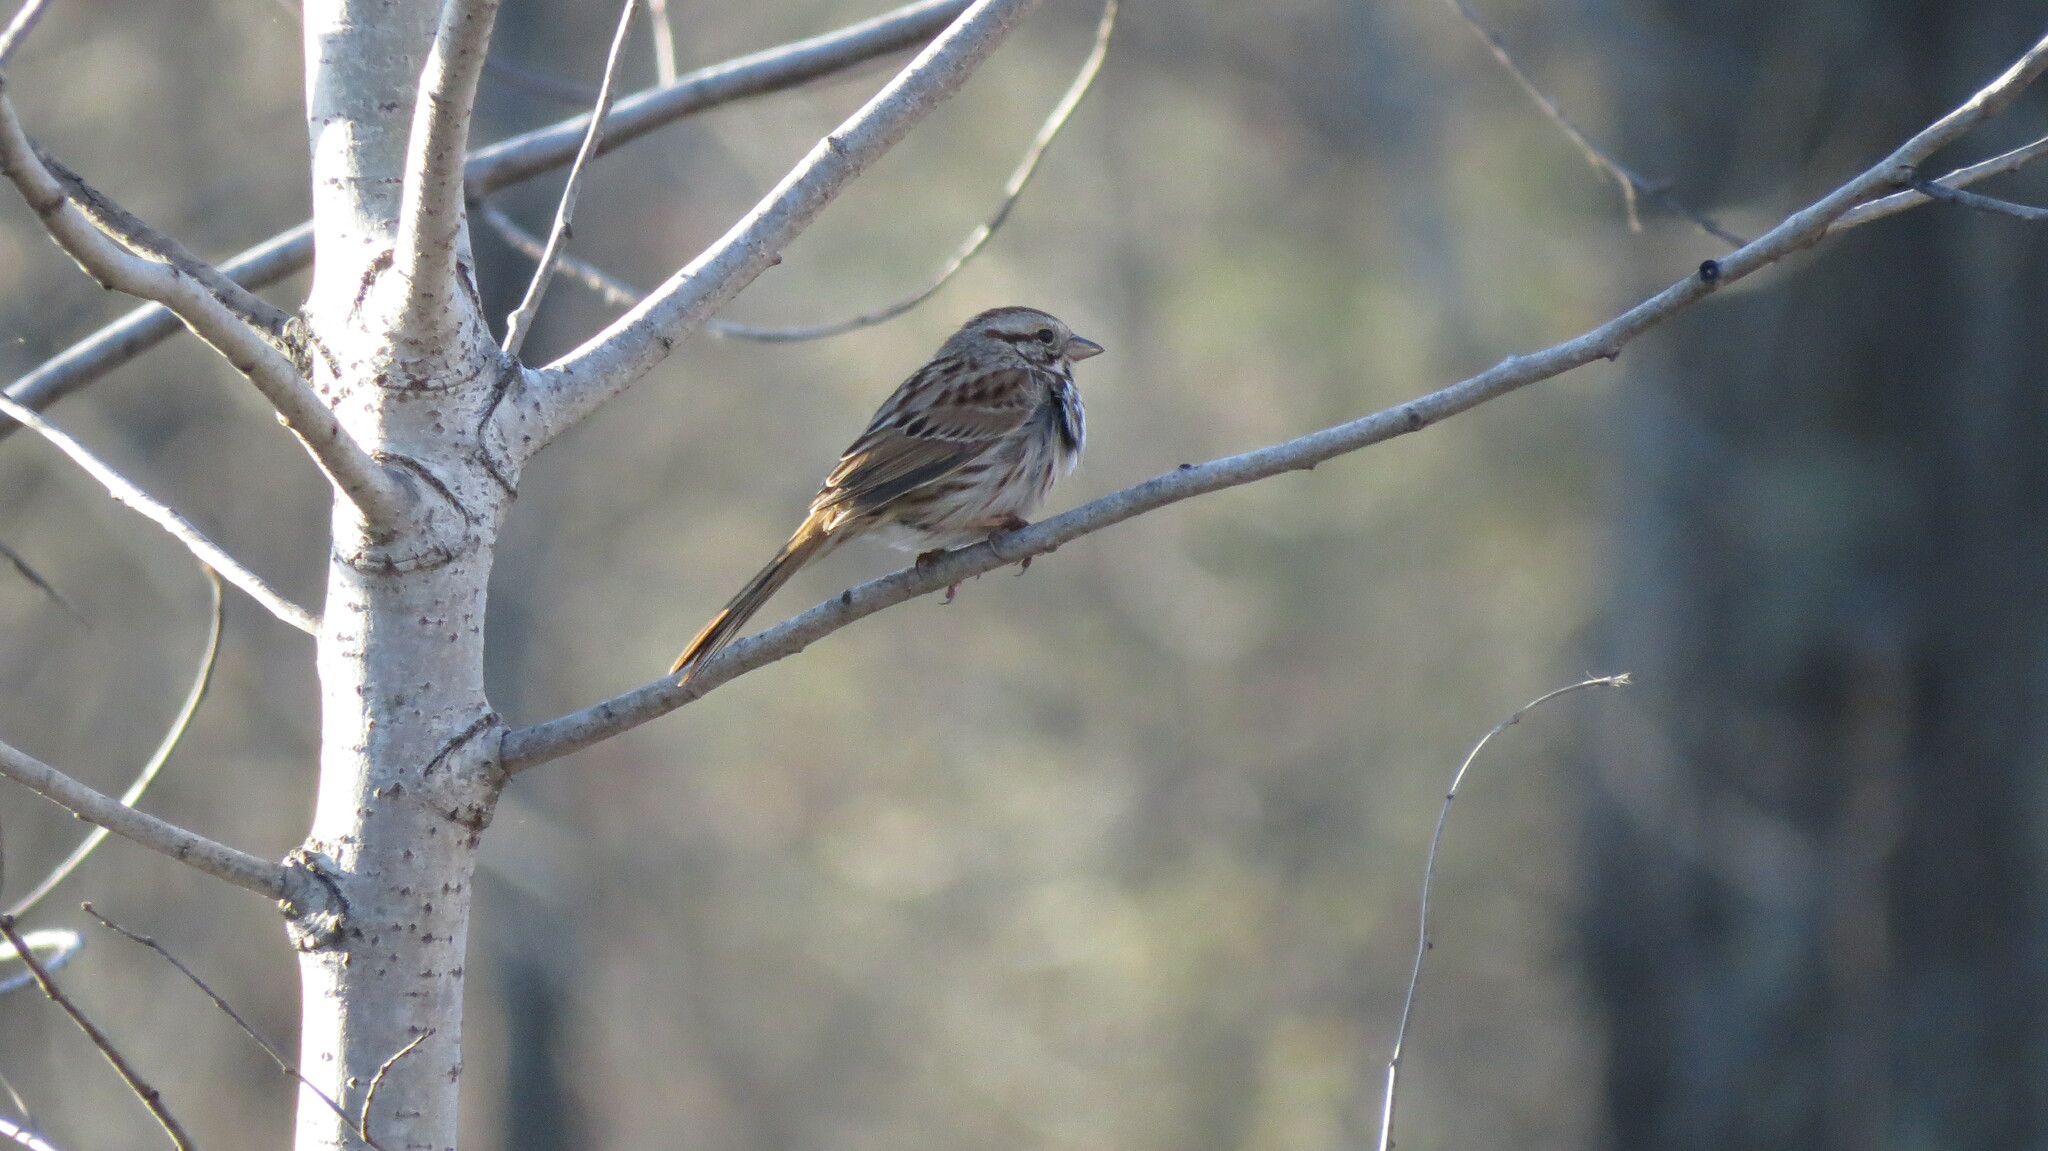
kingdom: Animalia
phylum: Chordata
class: Aves
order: Passeriformes
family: Passerellidae
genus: Melospiza
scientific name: Melospiza melodia
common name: Song sparrow
